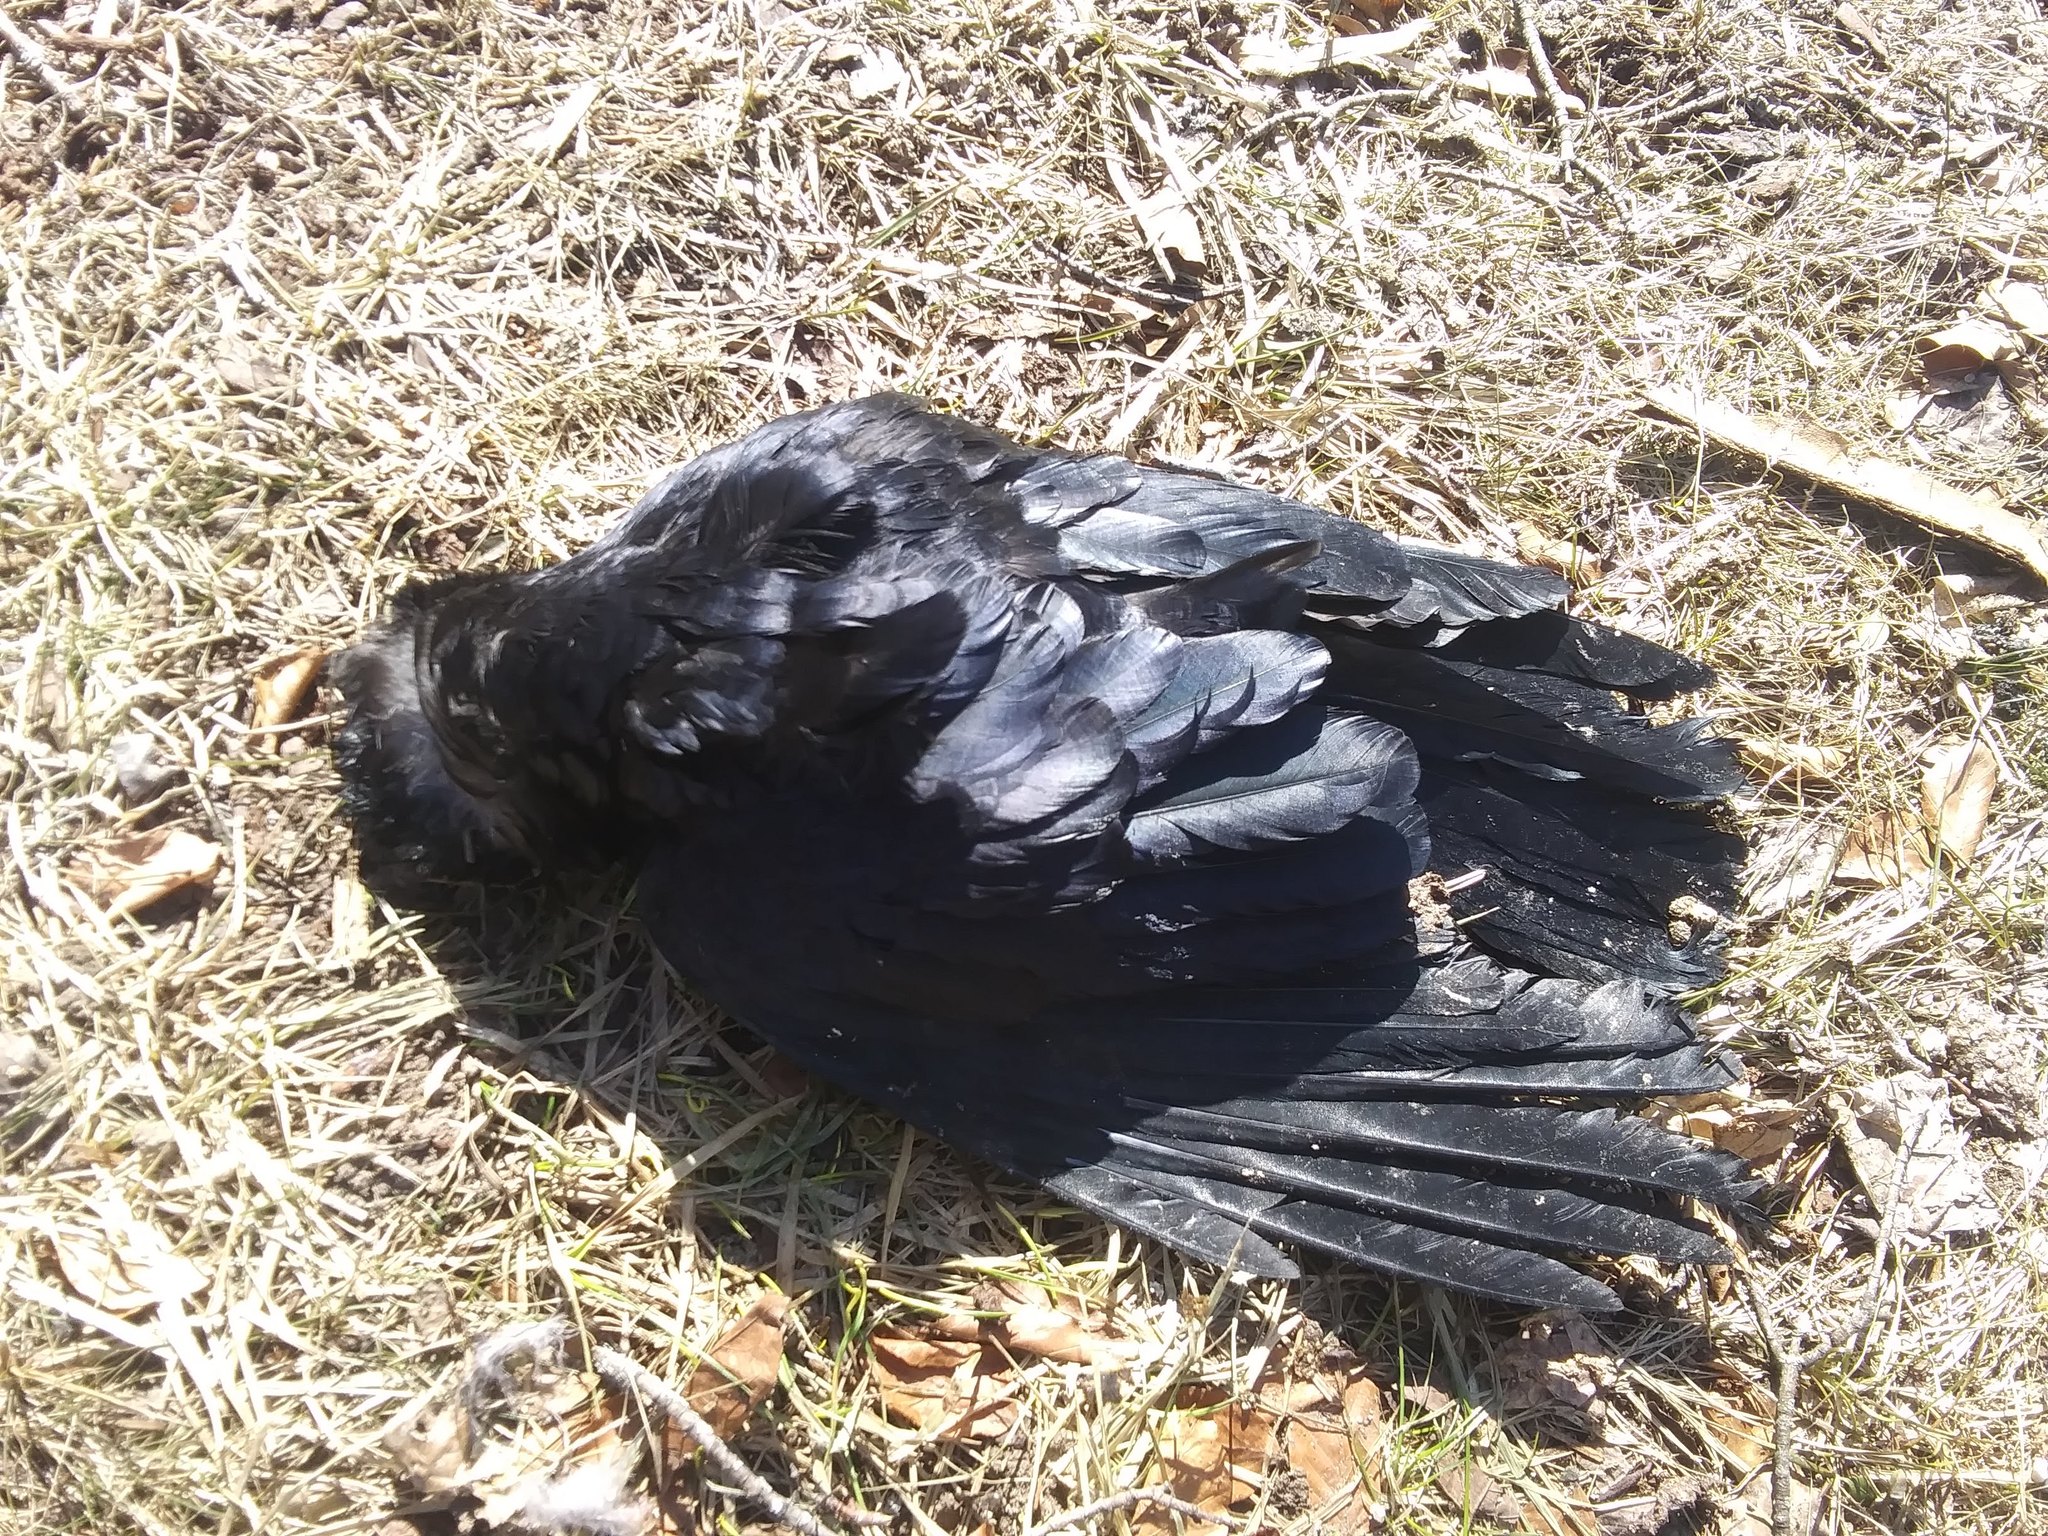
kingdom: Animalia
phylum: Chordata
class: Aves
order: Passeriformes
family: Corvidae
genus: Corvus
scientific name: Corvus brachyrhynchos
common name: American crow
